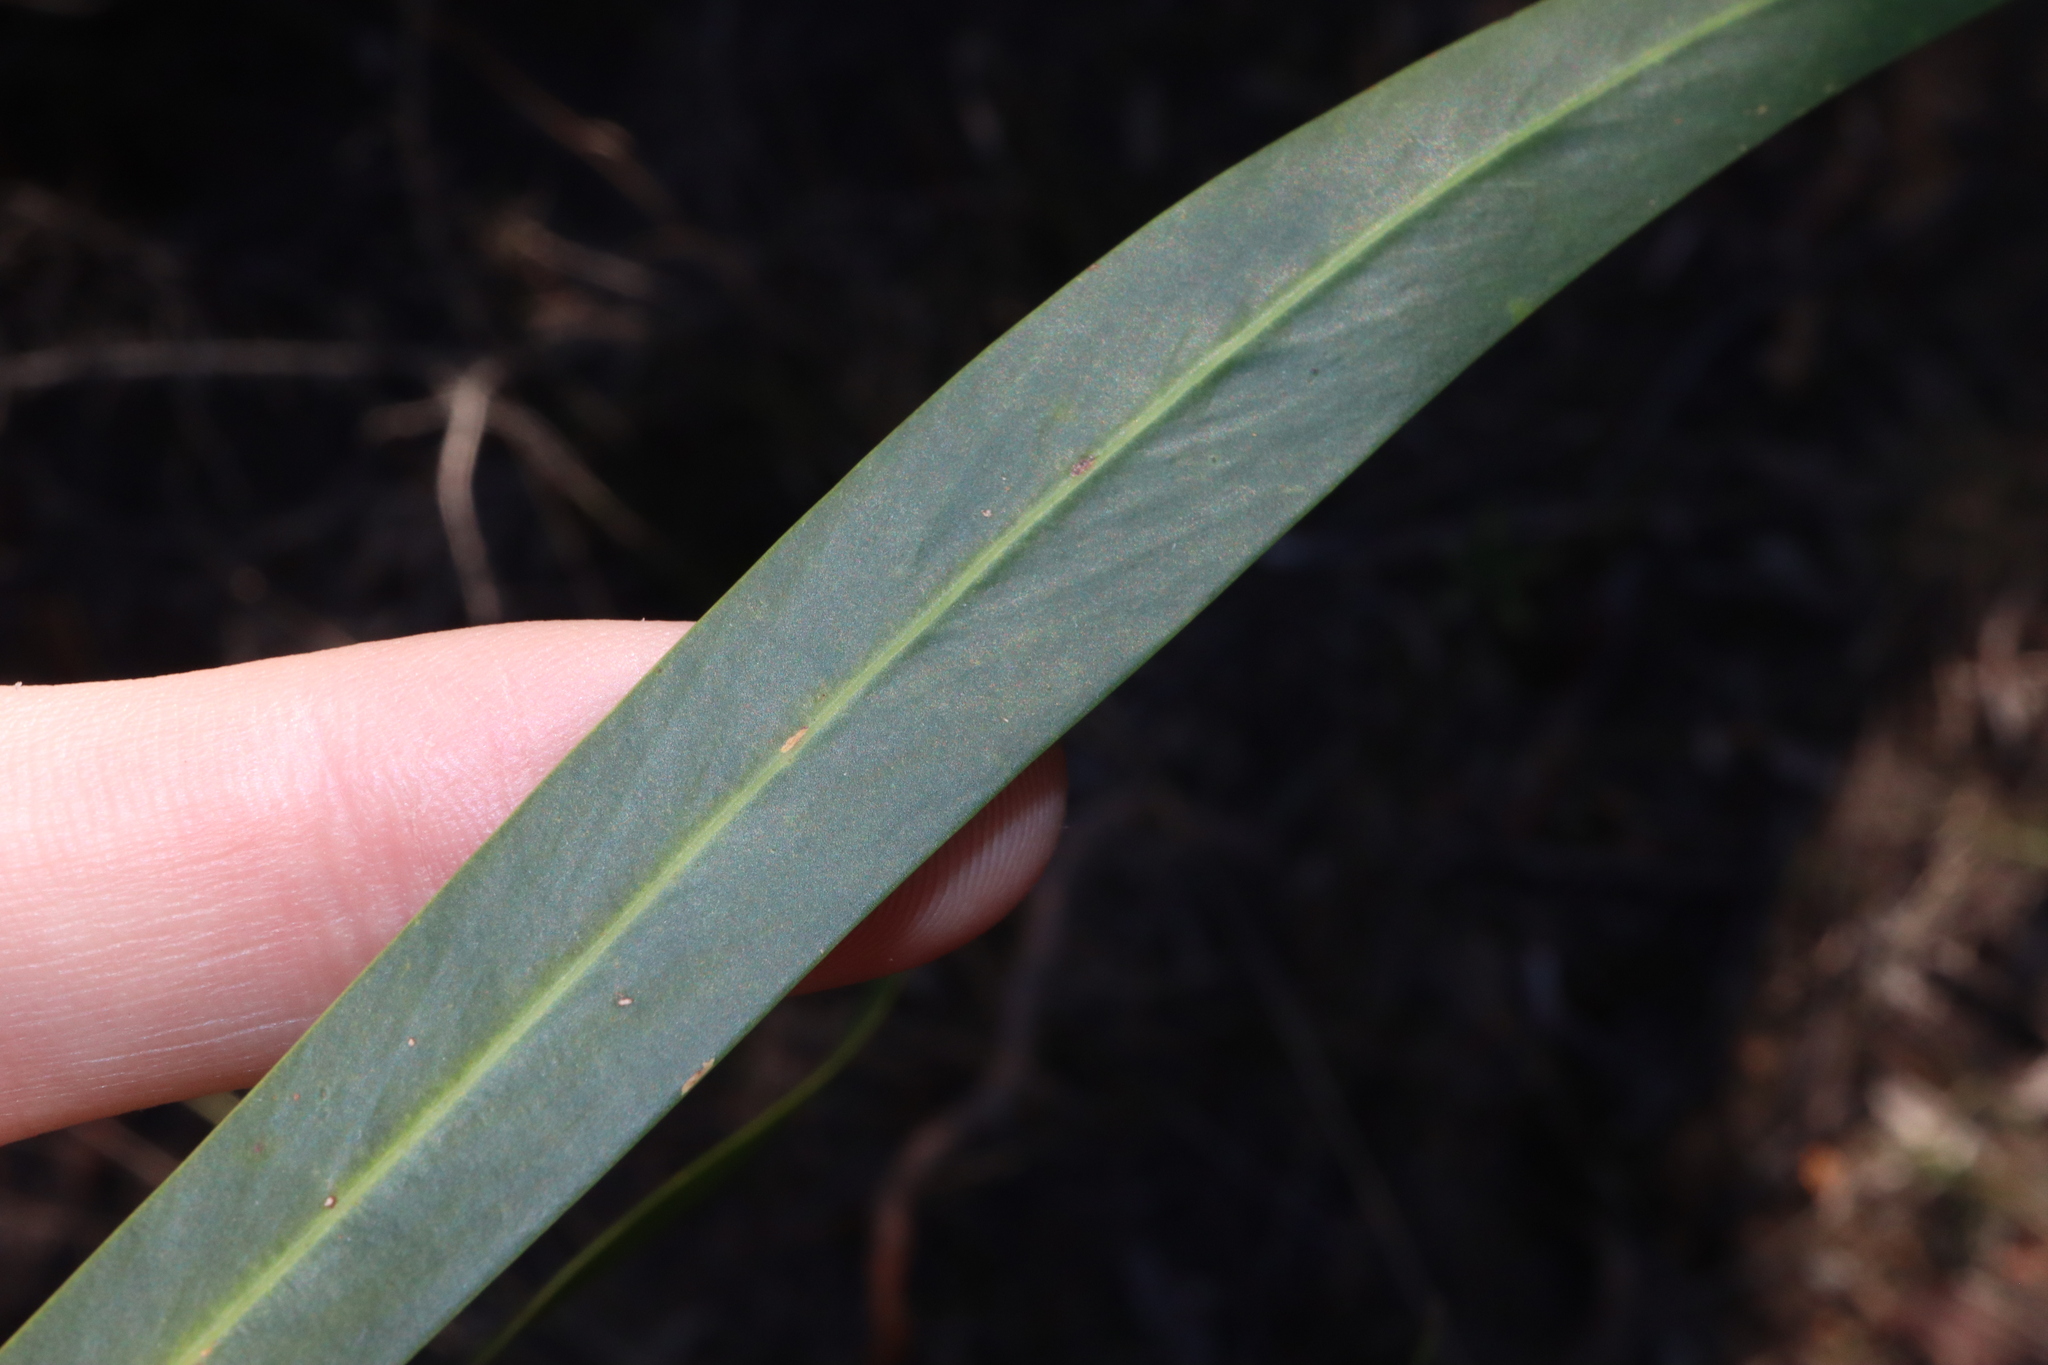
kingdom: Plantae
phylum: Tracheophyta
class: Magnoliopsida
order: Fabales
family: Fabaceae
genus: Acacia
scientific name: Acacia saligna
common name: Orange wattle
